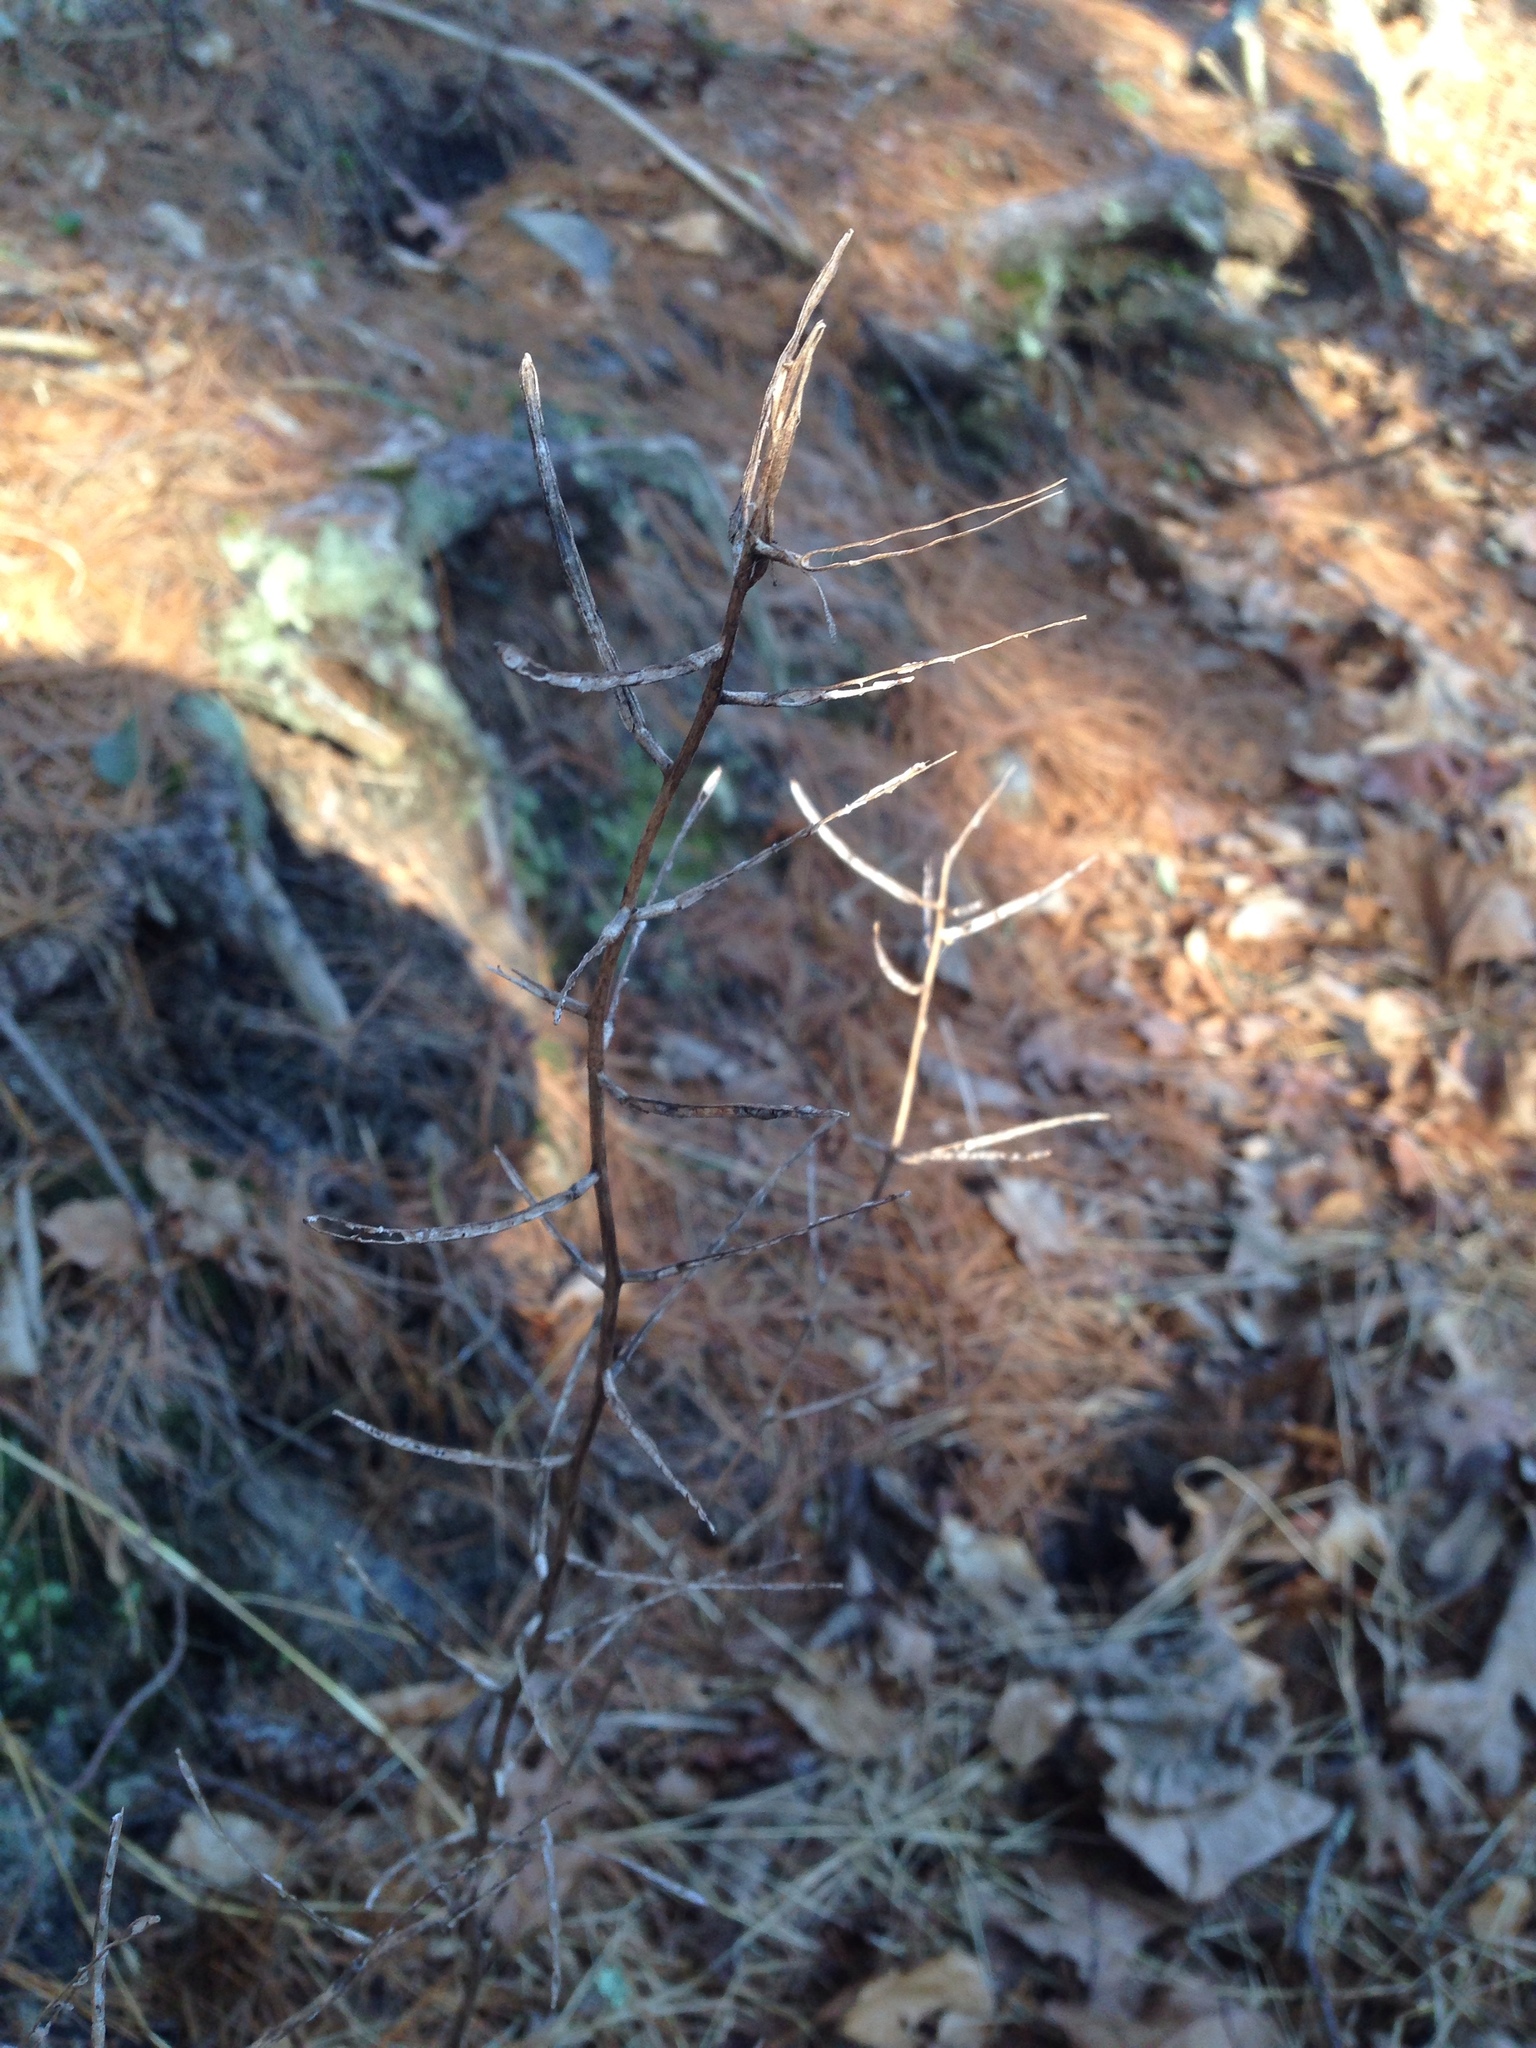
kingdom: Plantae
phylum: Tracheophyta
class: Magnoliopsida
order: Brassicales
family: Brassicaceae
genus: Alliaria
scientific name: Alliaria petiolata
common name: Garlic mustard
